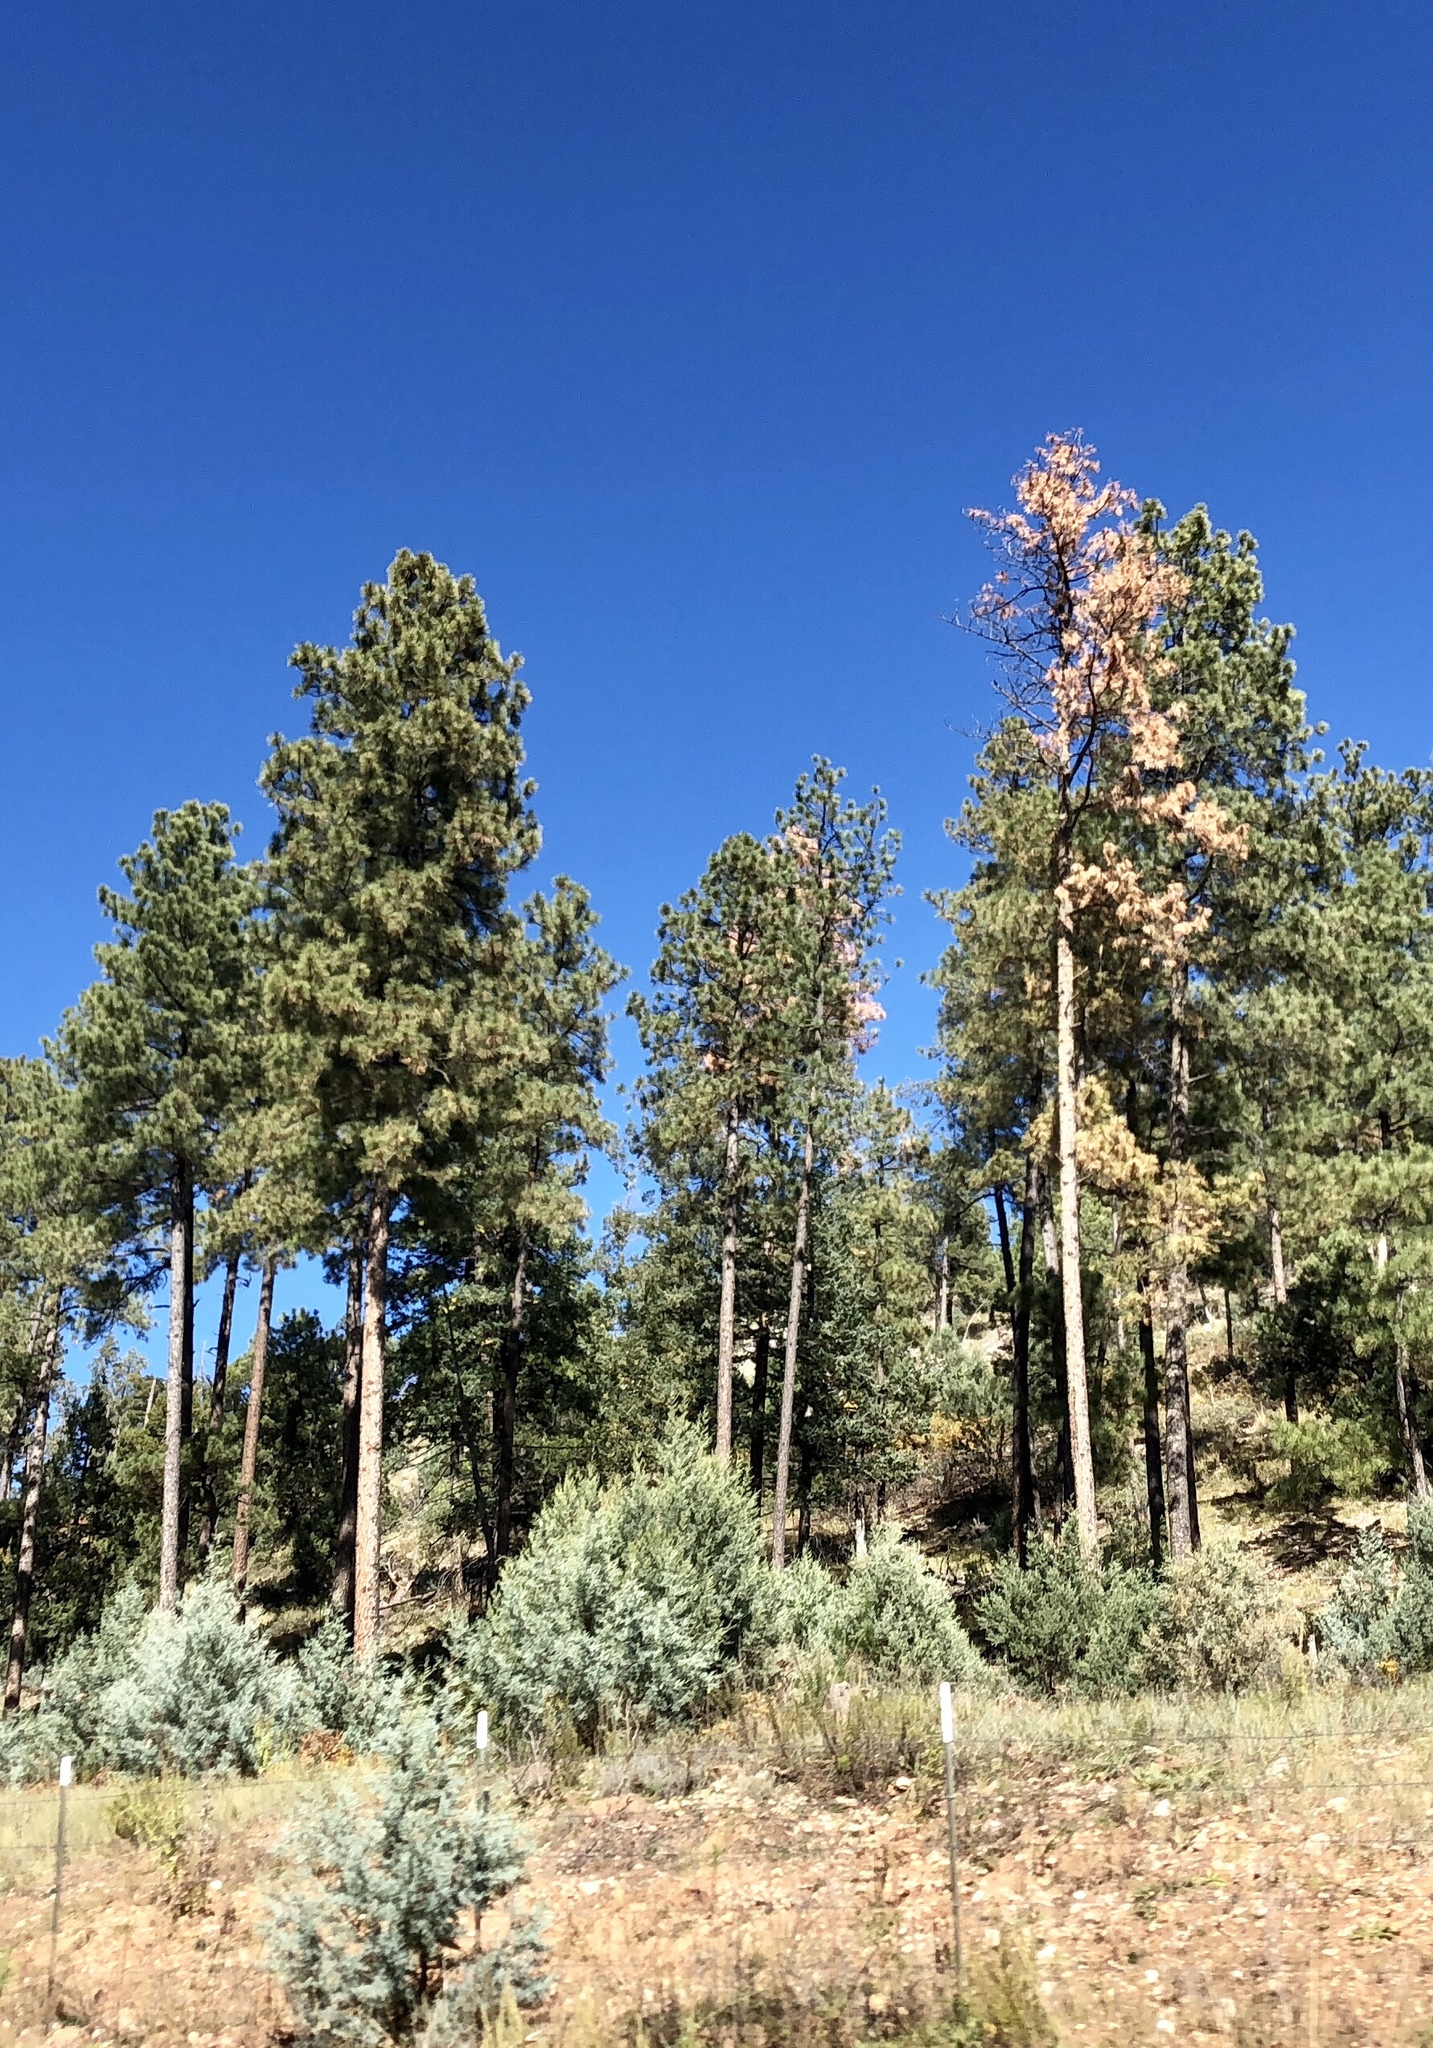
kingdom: Plantae
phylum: Tracheophyta
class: Pinopsida
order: Pinales
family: Pinaceae
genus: Pinus
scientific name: Pinus ponderosa
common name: Western yellow-pine
